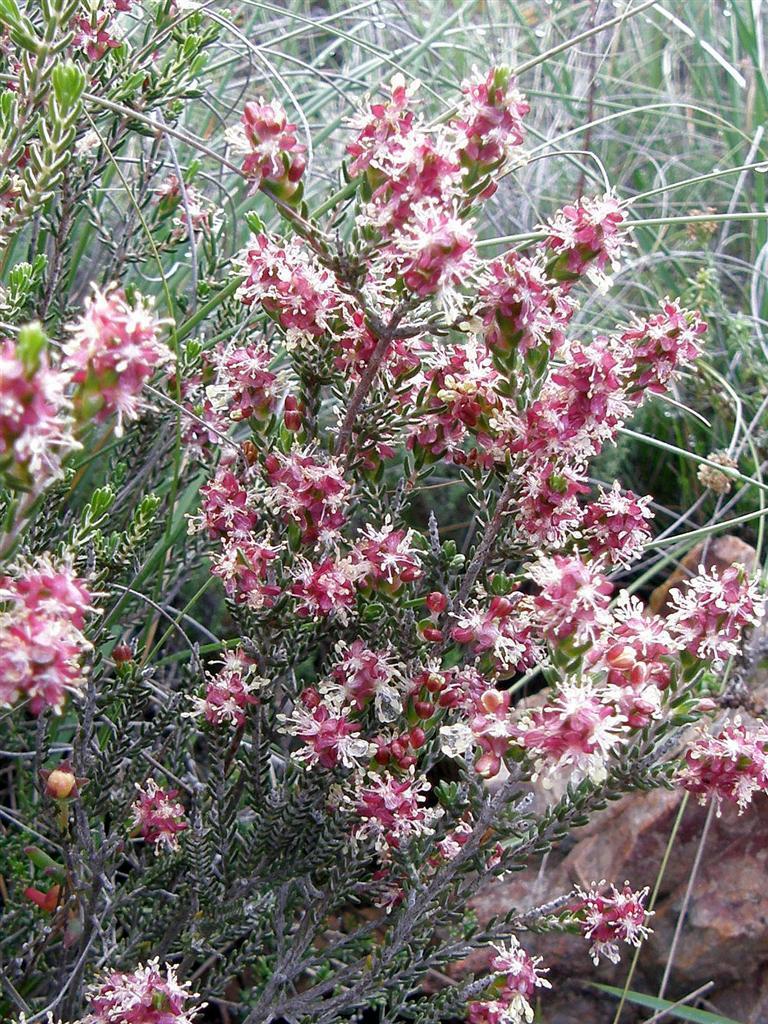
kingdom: Plantae
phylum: Tracheophyta
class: Magnoliopsida
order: Malvales
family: Thymelaeaceae
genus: Passerina
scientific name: Passerina filiformis
